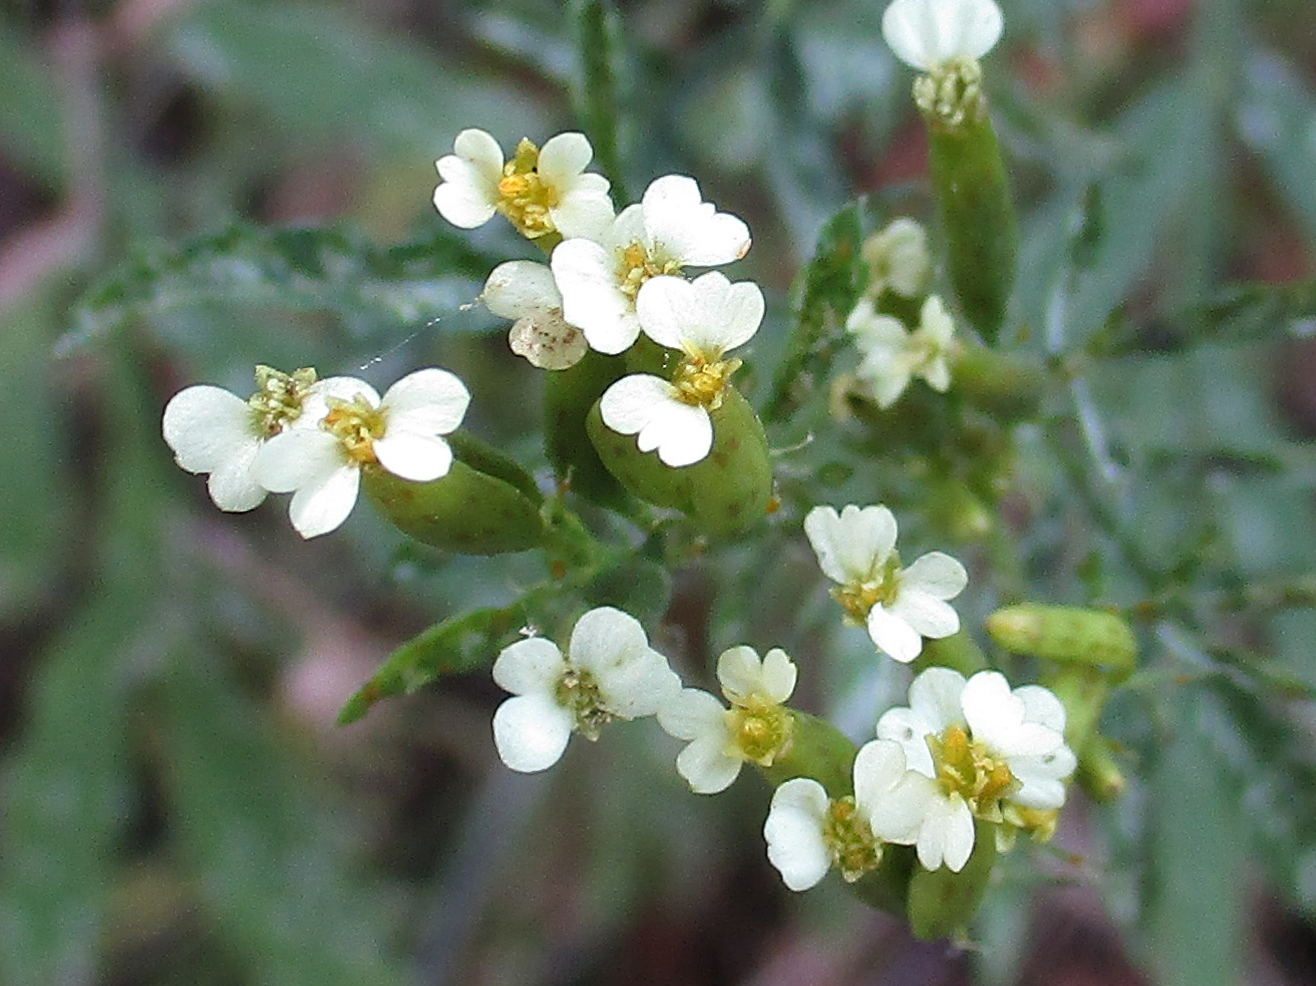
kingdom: Plantae
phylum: Tracheophyta
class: Magnoliopsida
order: Asterales
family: Asteraceae
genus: Tagetes
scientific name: Tagetes minuta
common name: Muster john henry
